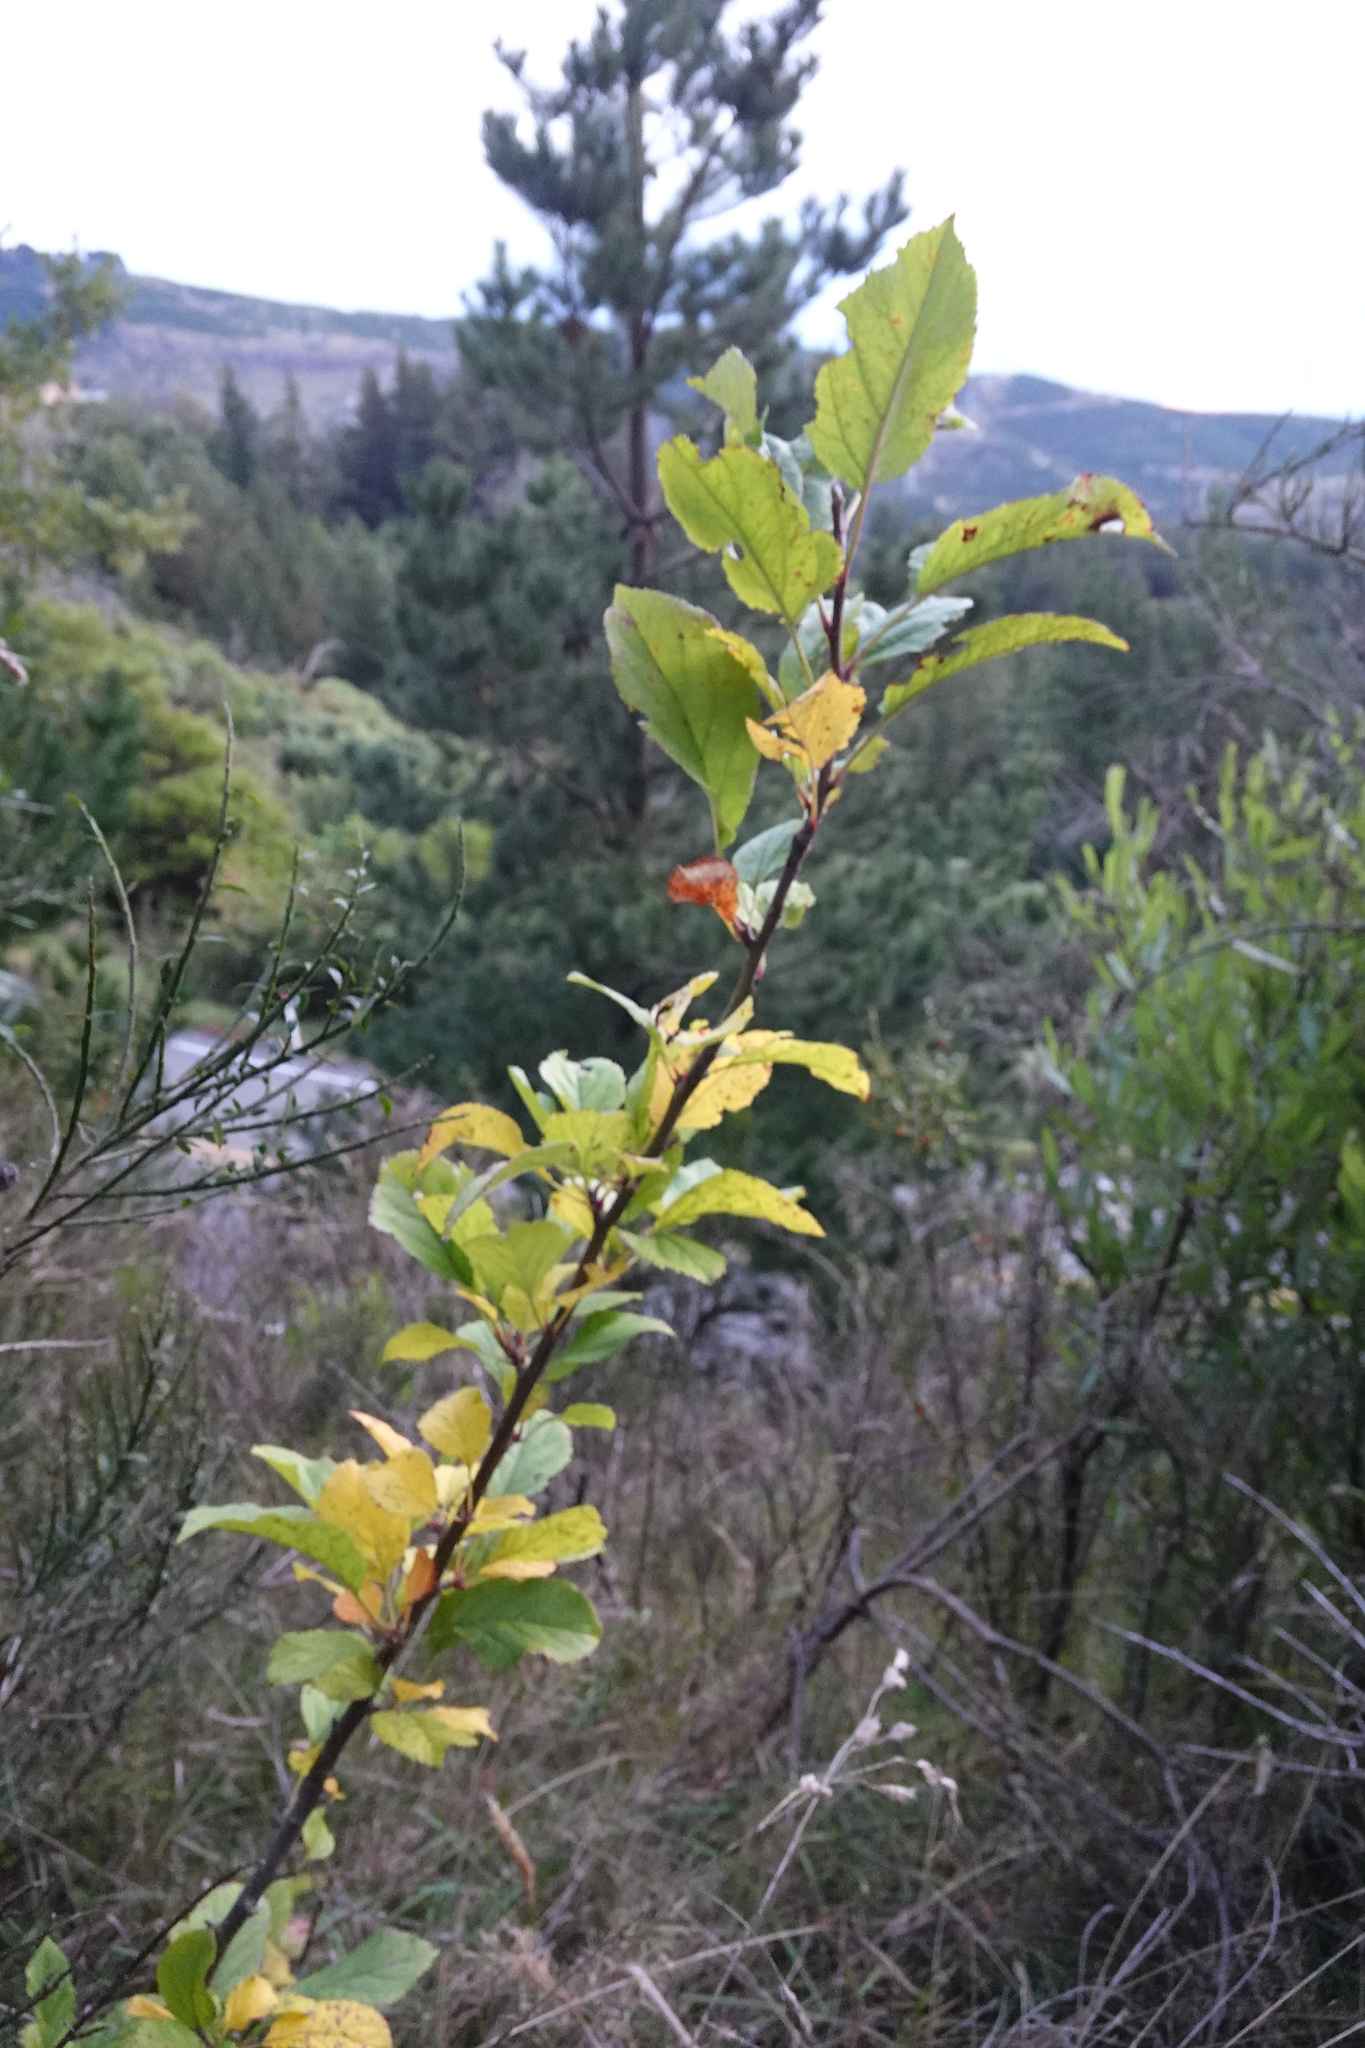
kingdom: Plantae
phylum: Tracheophyta
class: Magnoliopsida
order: Rosales
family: Rosaceae
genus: Malus
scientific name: Malus domestica
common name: Apple
